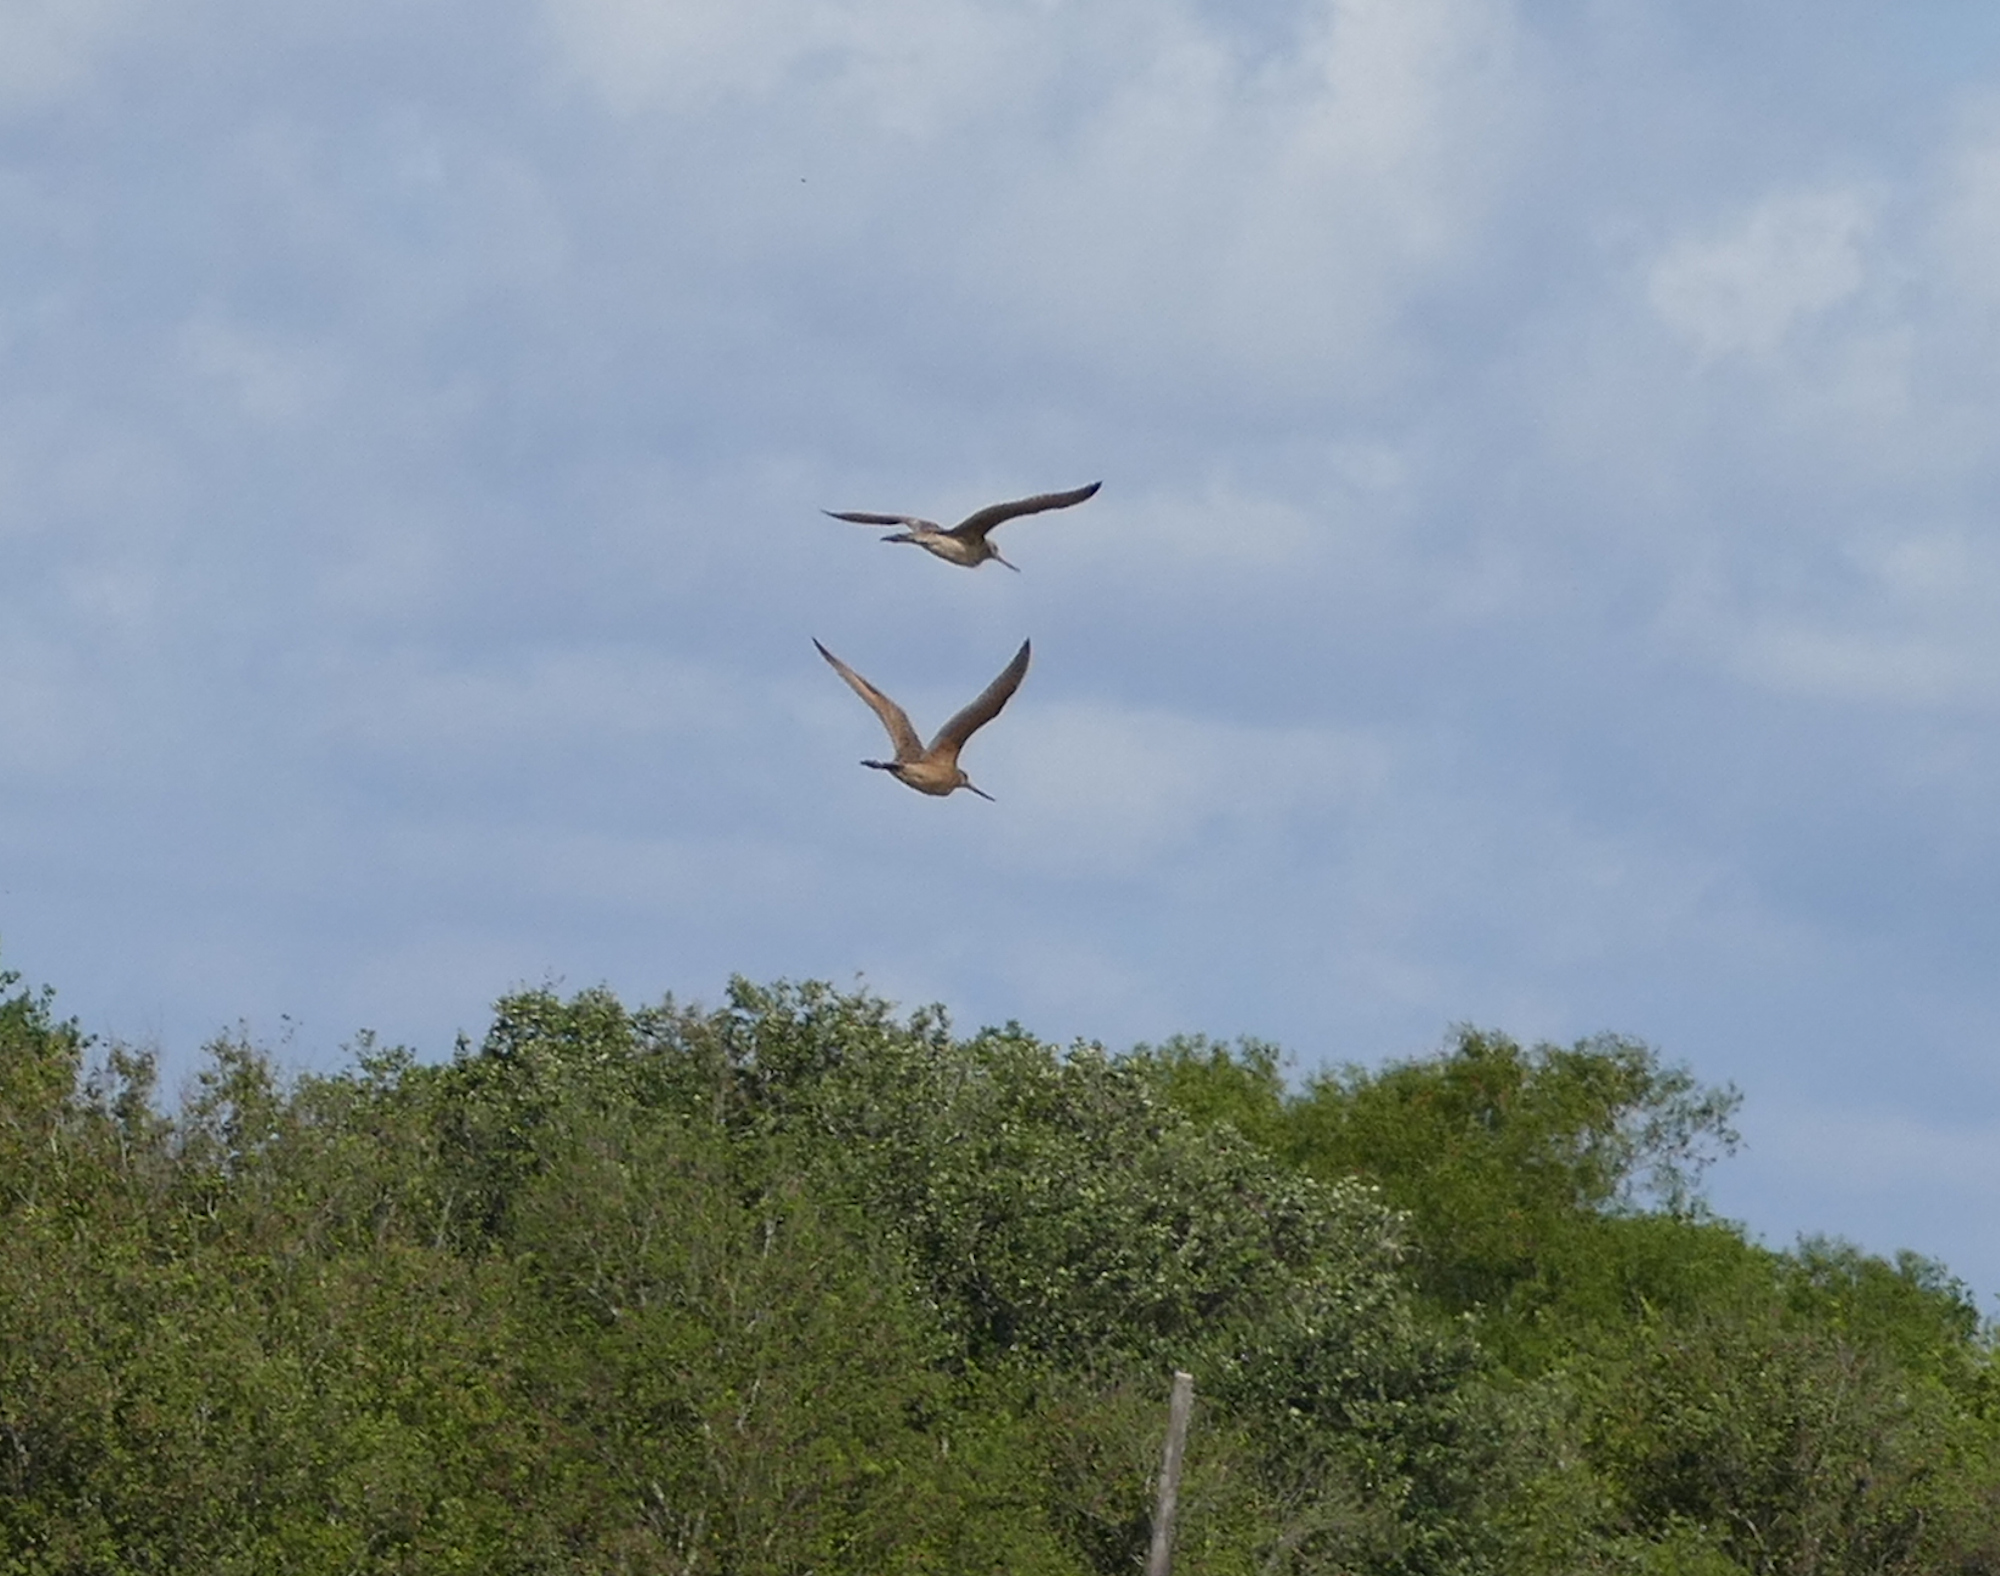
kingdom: Animalia
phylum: Chordata
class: Aves
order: Charadriiformes
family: Scolopacidae
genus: Limosa
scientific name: Limosa fedoa
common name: Marbled godwit
